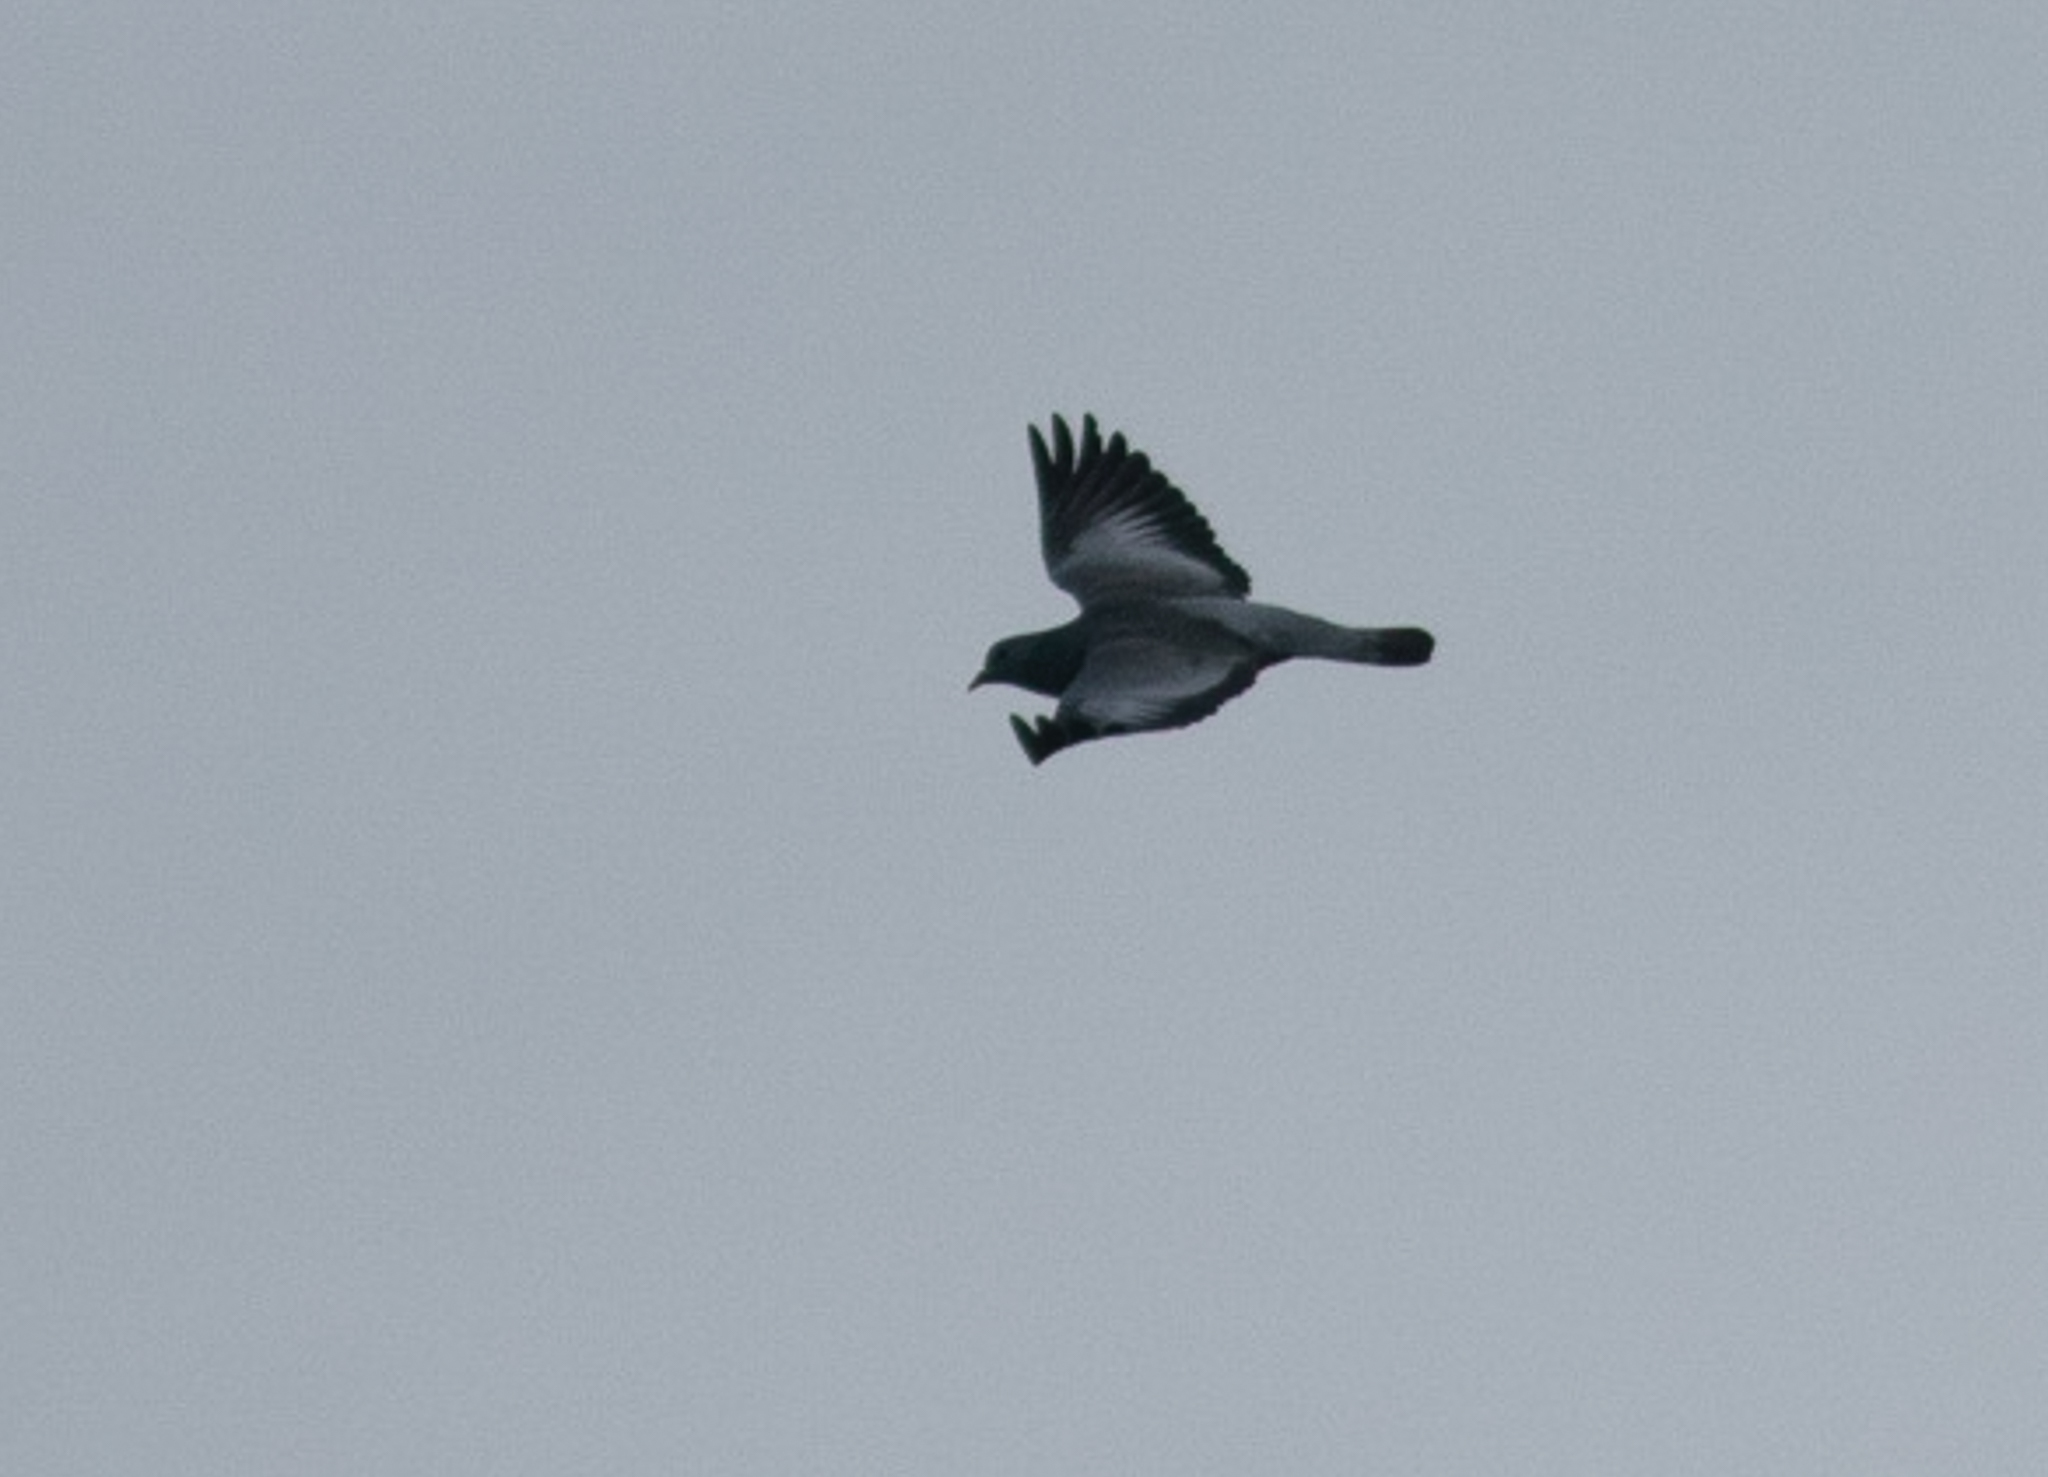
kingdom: Animalia
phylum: Chordata
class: Aves
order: Columbiformes
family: Columbidae
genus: Columba
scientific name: Columba oenas
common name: Stock dove
